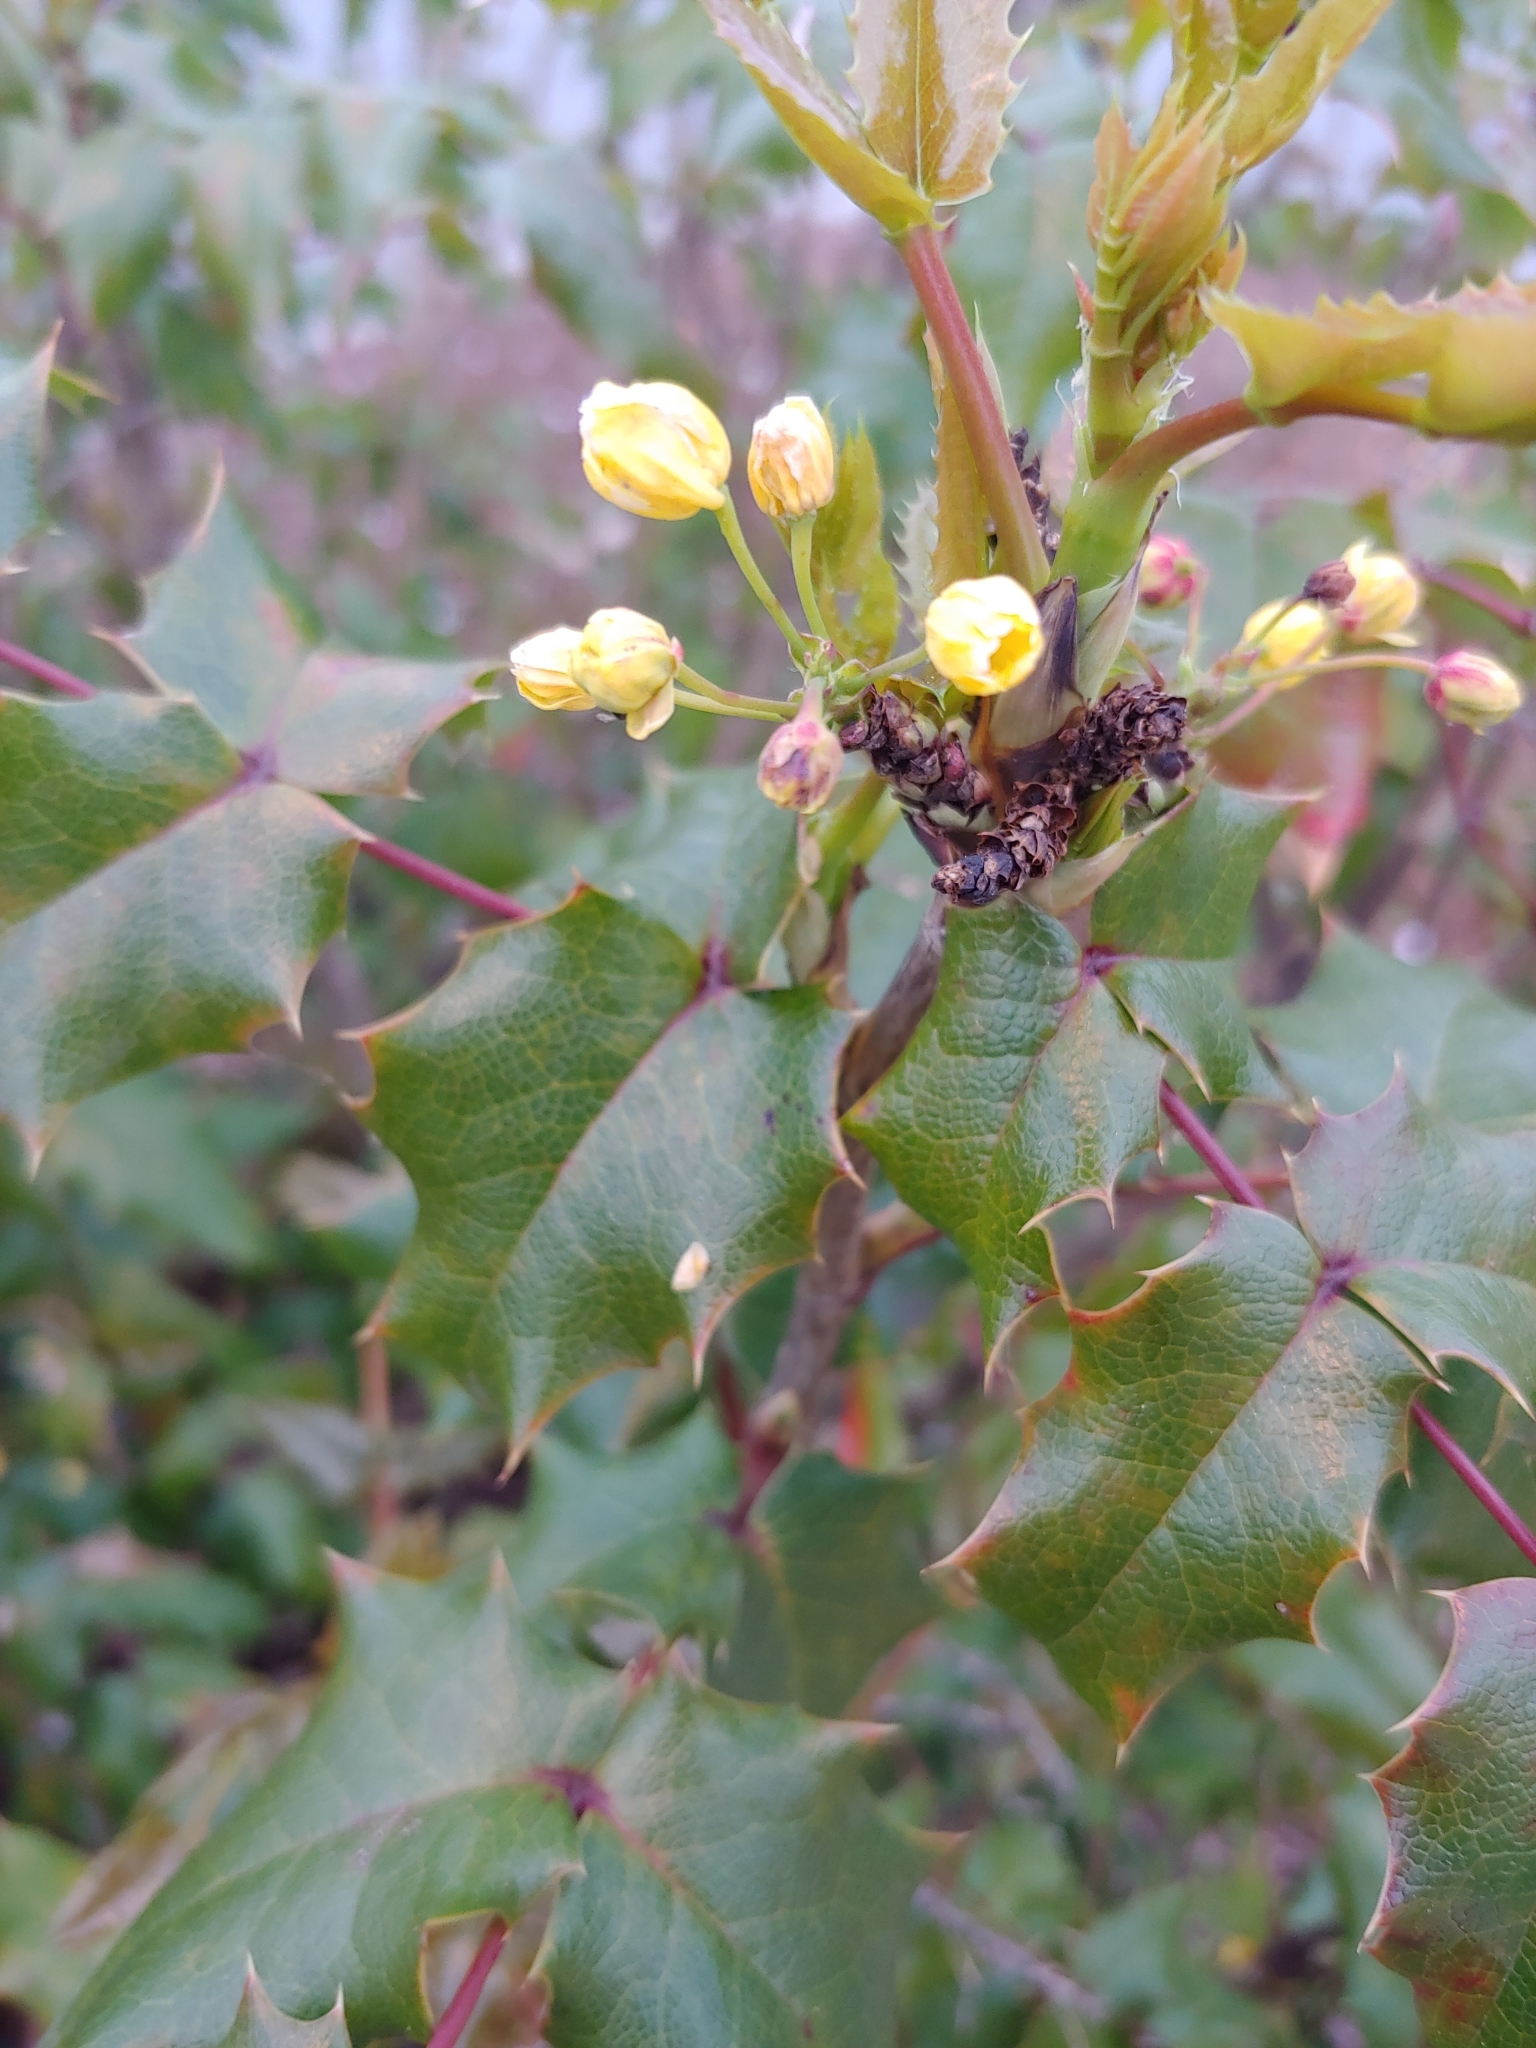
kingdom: Plantae
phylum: Tracheophyta
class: Magnoliopsida
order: Ranunculales
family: Berberidaceae
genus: Mahonia
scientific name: Mahonia aquifolium
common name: Oregon-grape
